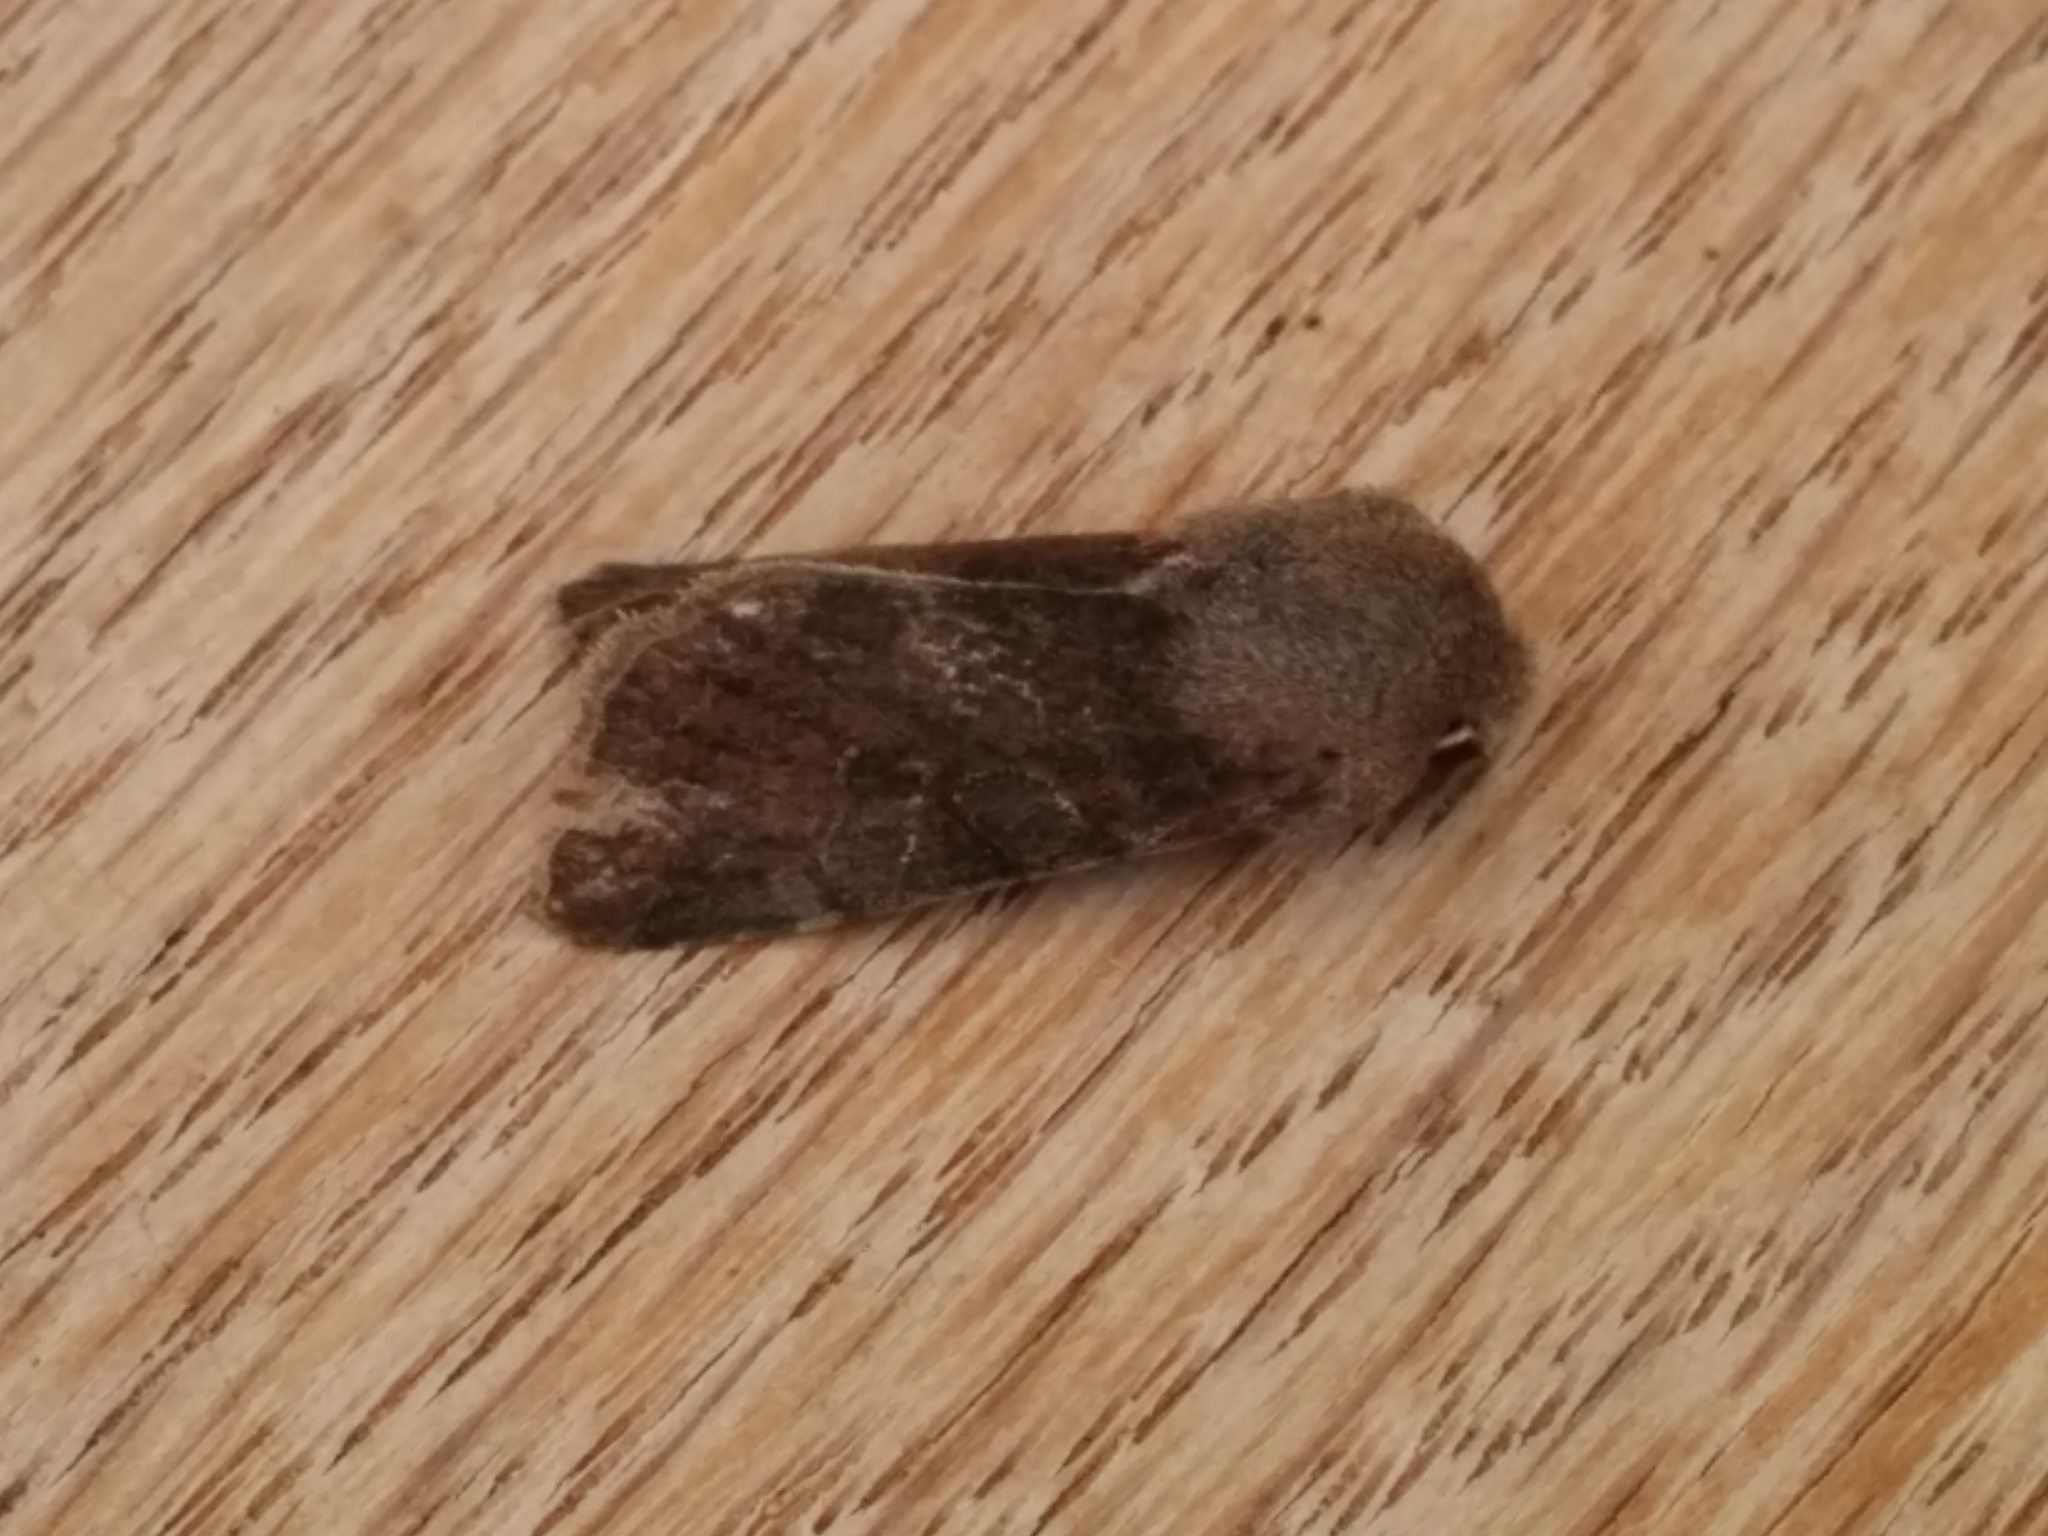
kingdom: Animalia
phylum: Arthropoda
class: Insecta
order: Lepidoptera
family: Noctuidae
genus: Orthosia
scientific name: Orthosia incerta
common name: Clouded drab
